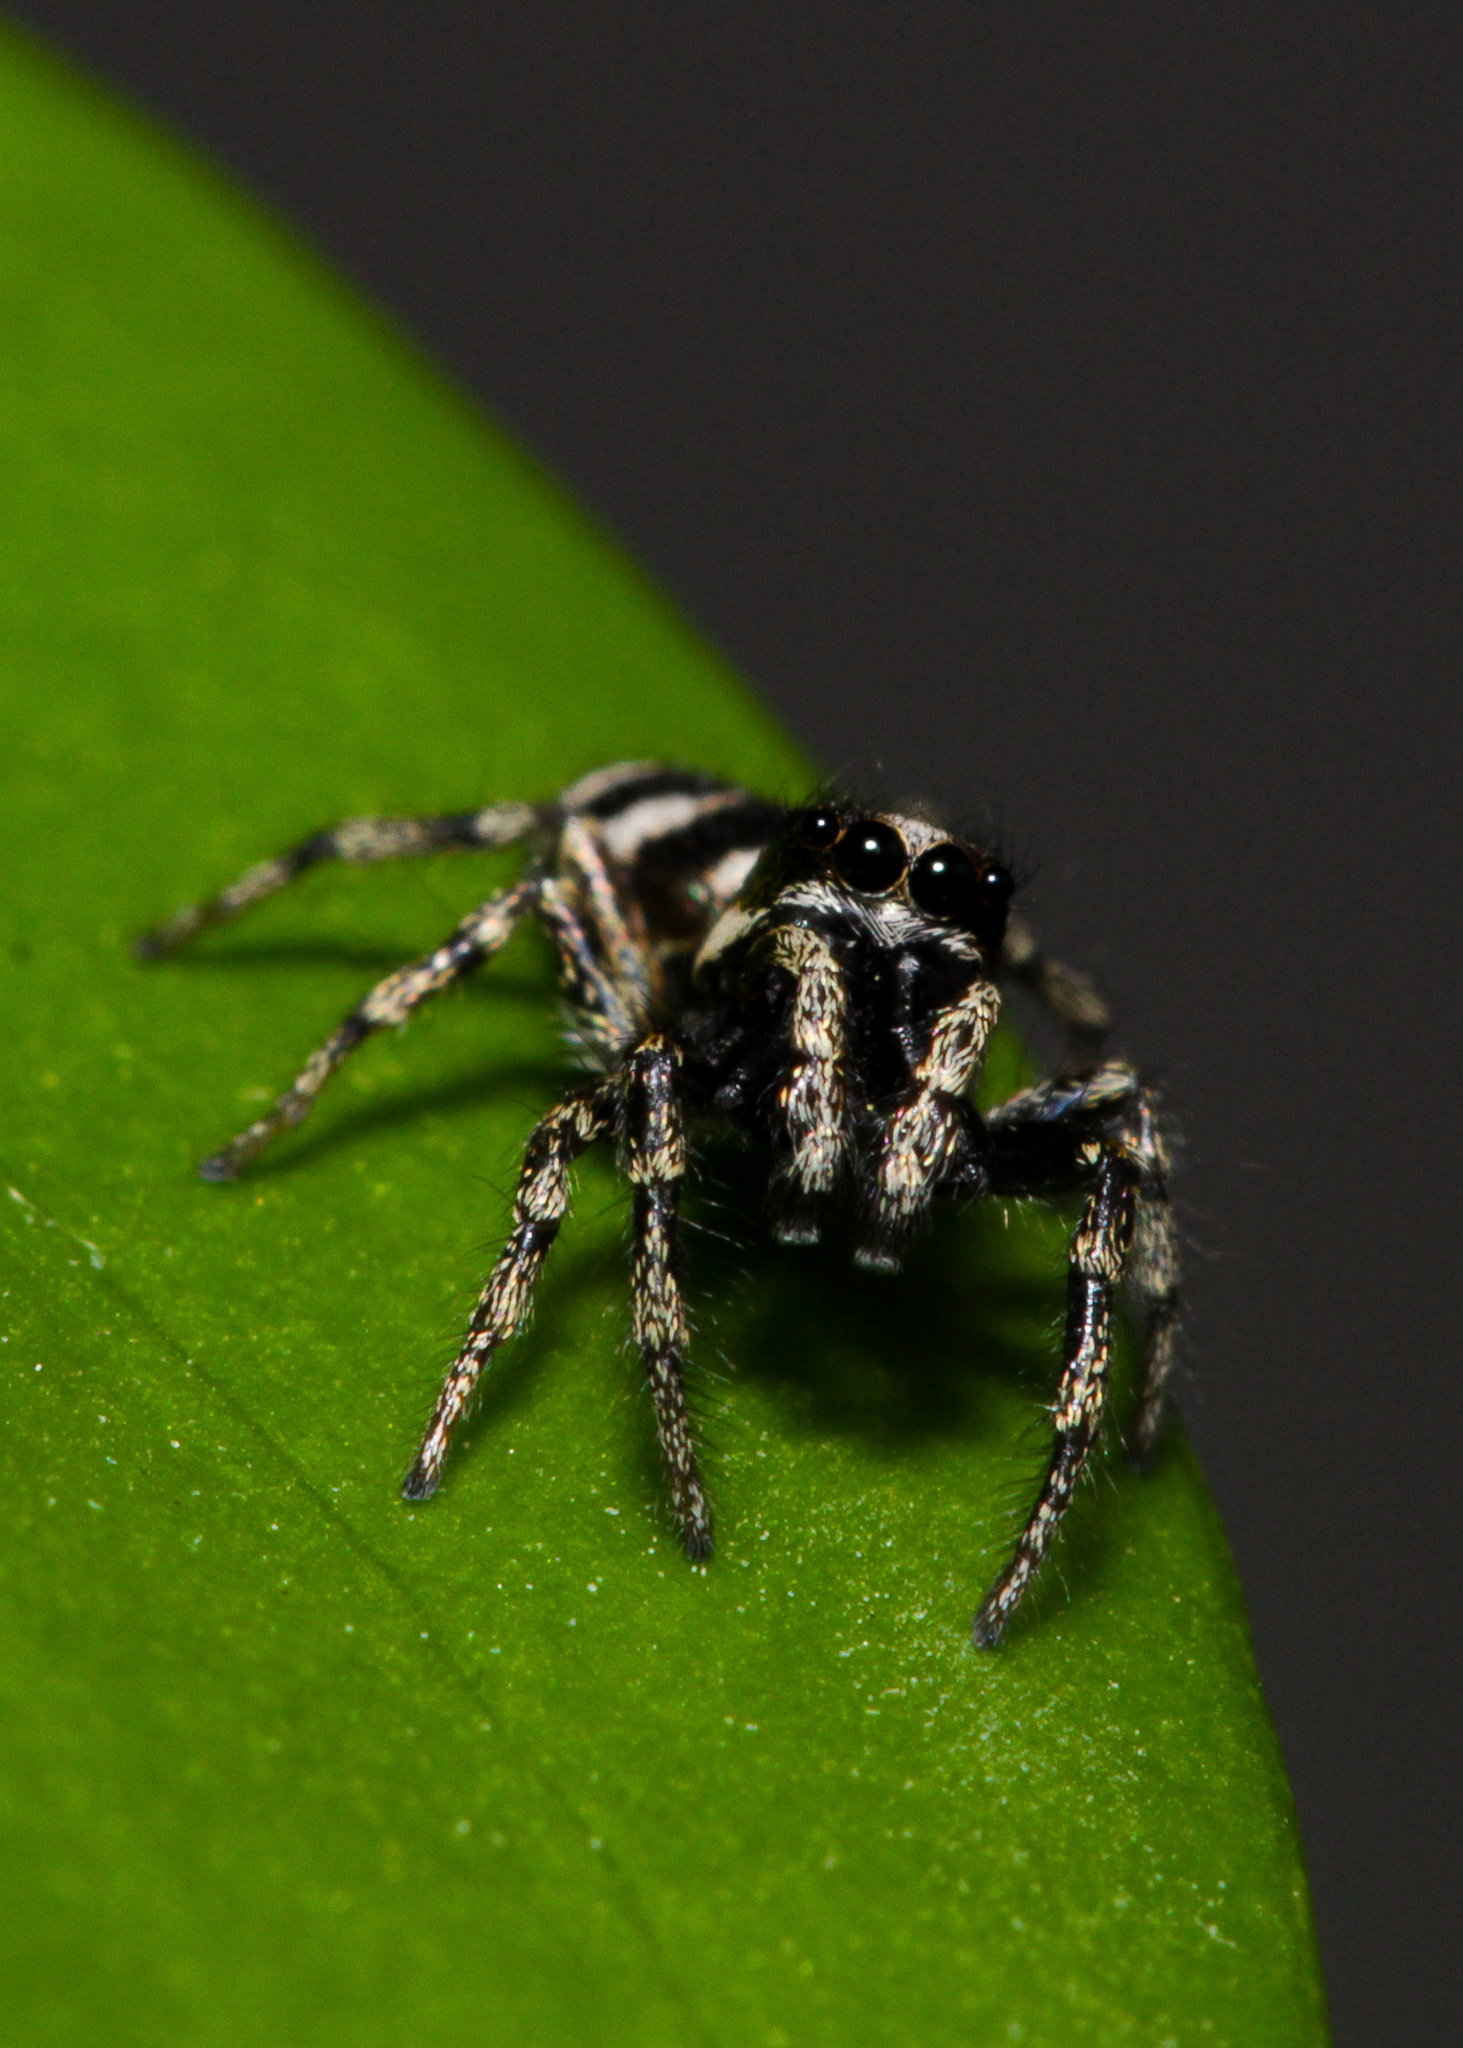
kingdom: Animalia
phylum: Arthropoda
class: Arachnida
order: Araneae
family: Salticidae
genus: Salticus
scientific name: Salticus scenicus
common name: Zebra jumper
